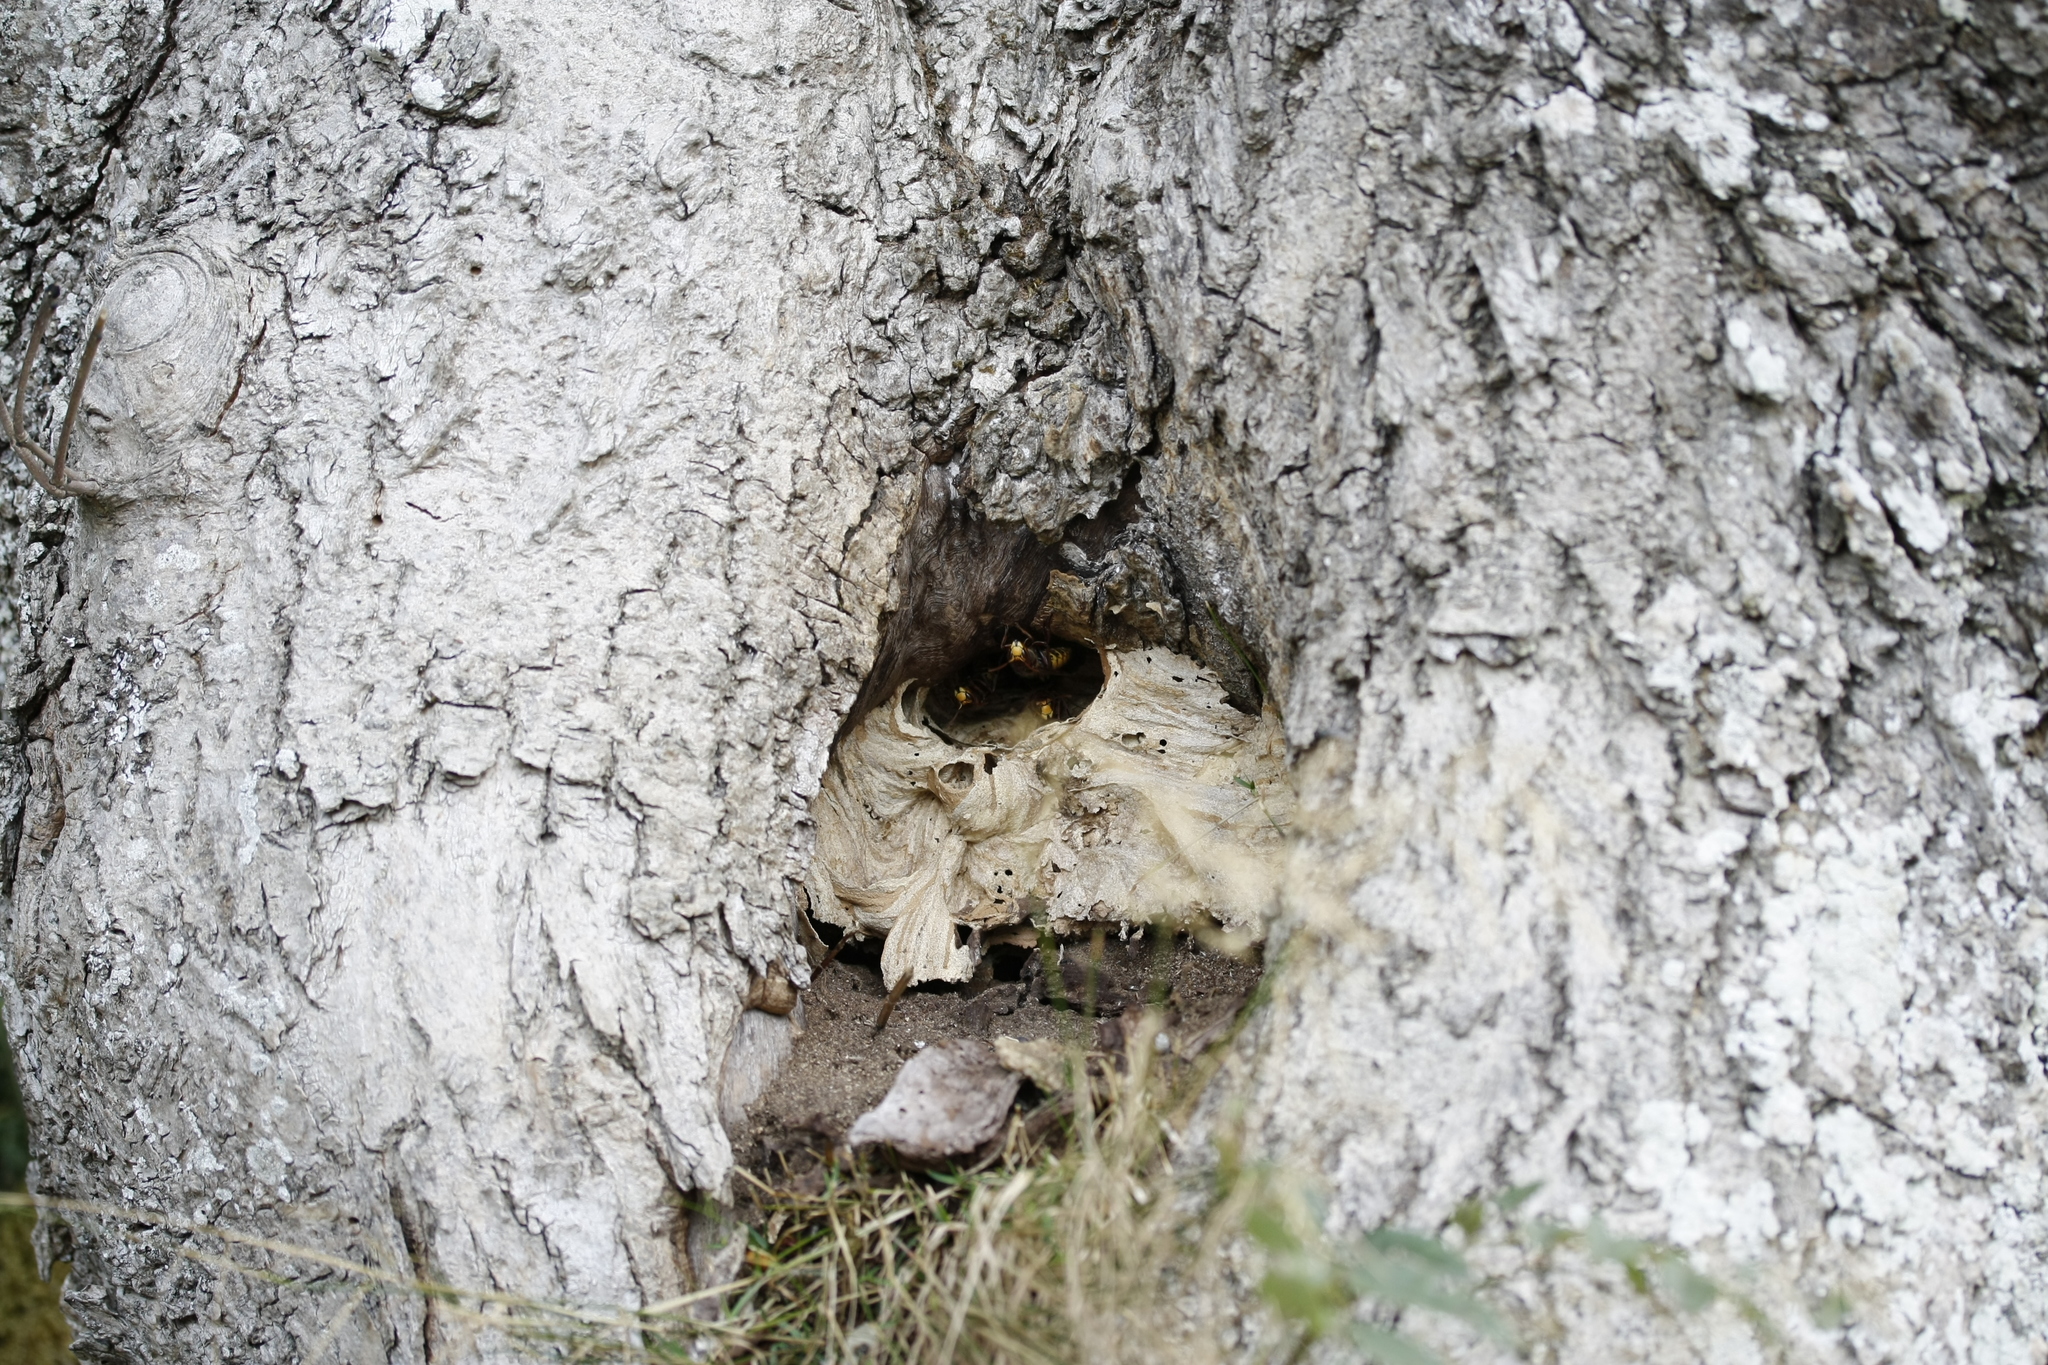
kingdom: Animalia
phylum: Arthropoda
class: Insecta
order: Hymenoptera
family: Vespidae
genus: Vespa
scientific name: Vespa crabro
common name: Hornet
